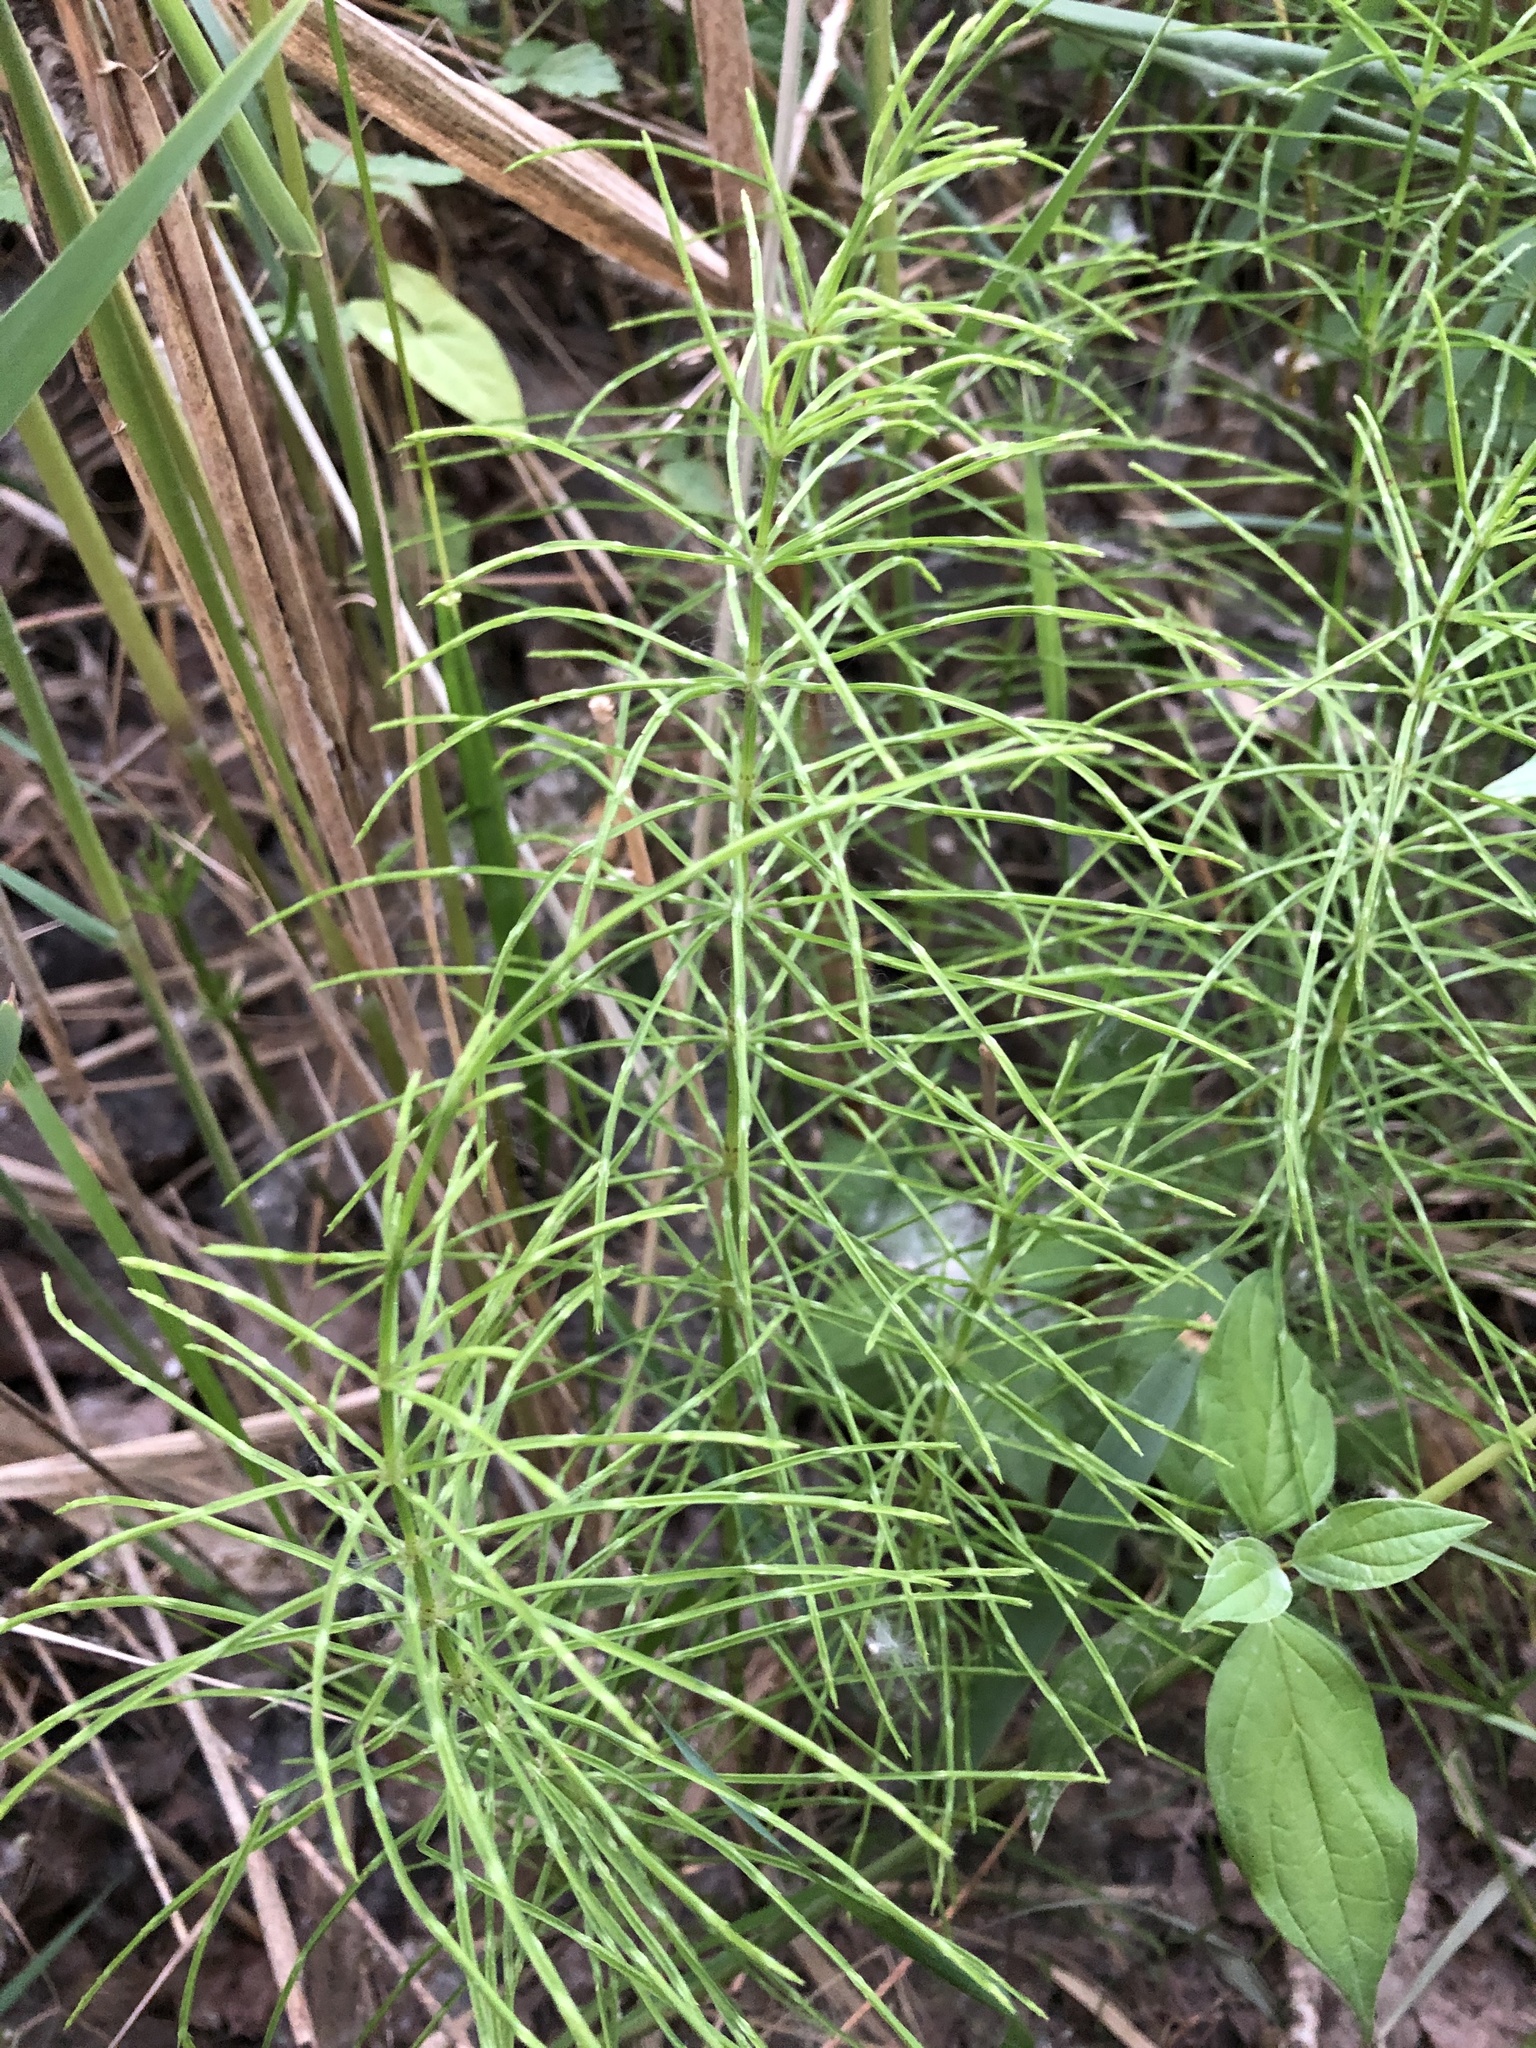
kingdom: Plantae
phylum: Tracheophyta
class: Polypodiopsida
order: Equisetales
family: Equisetaceae
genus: Equisetum
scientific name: Equisetum arvense
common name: Field horsetail
